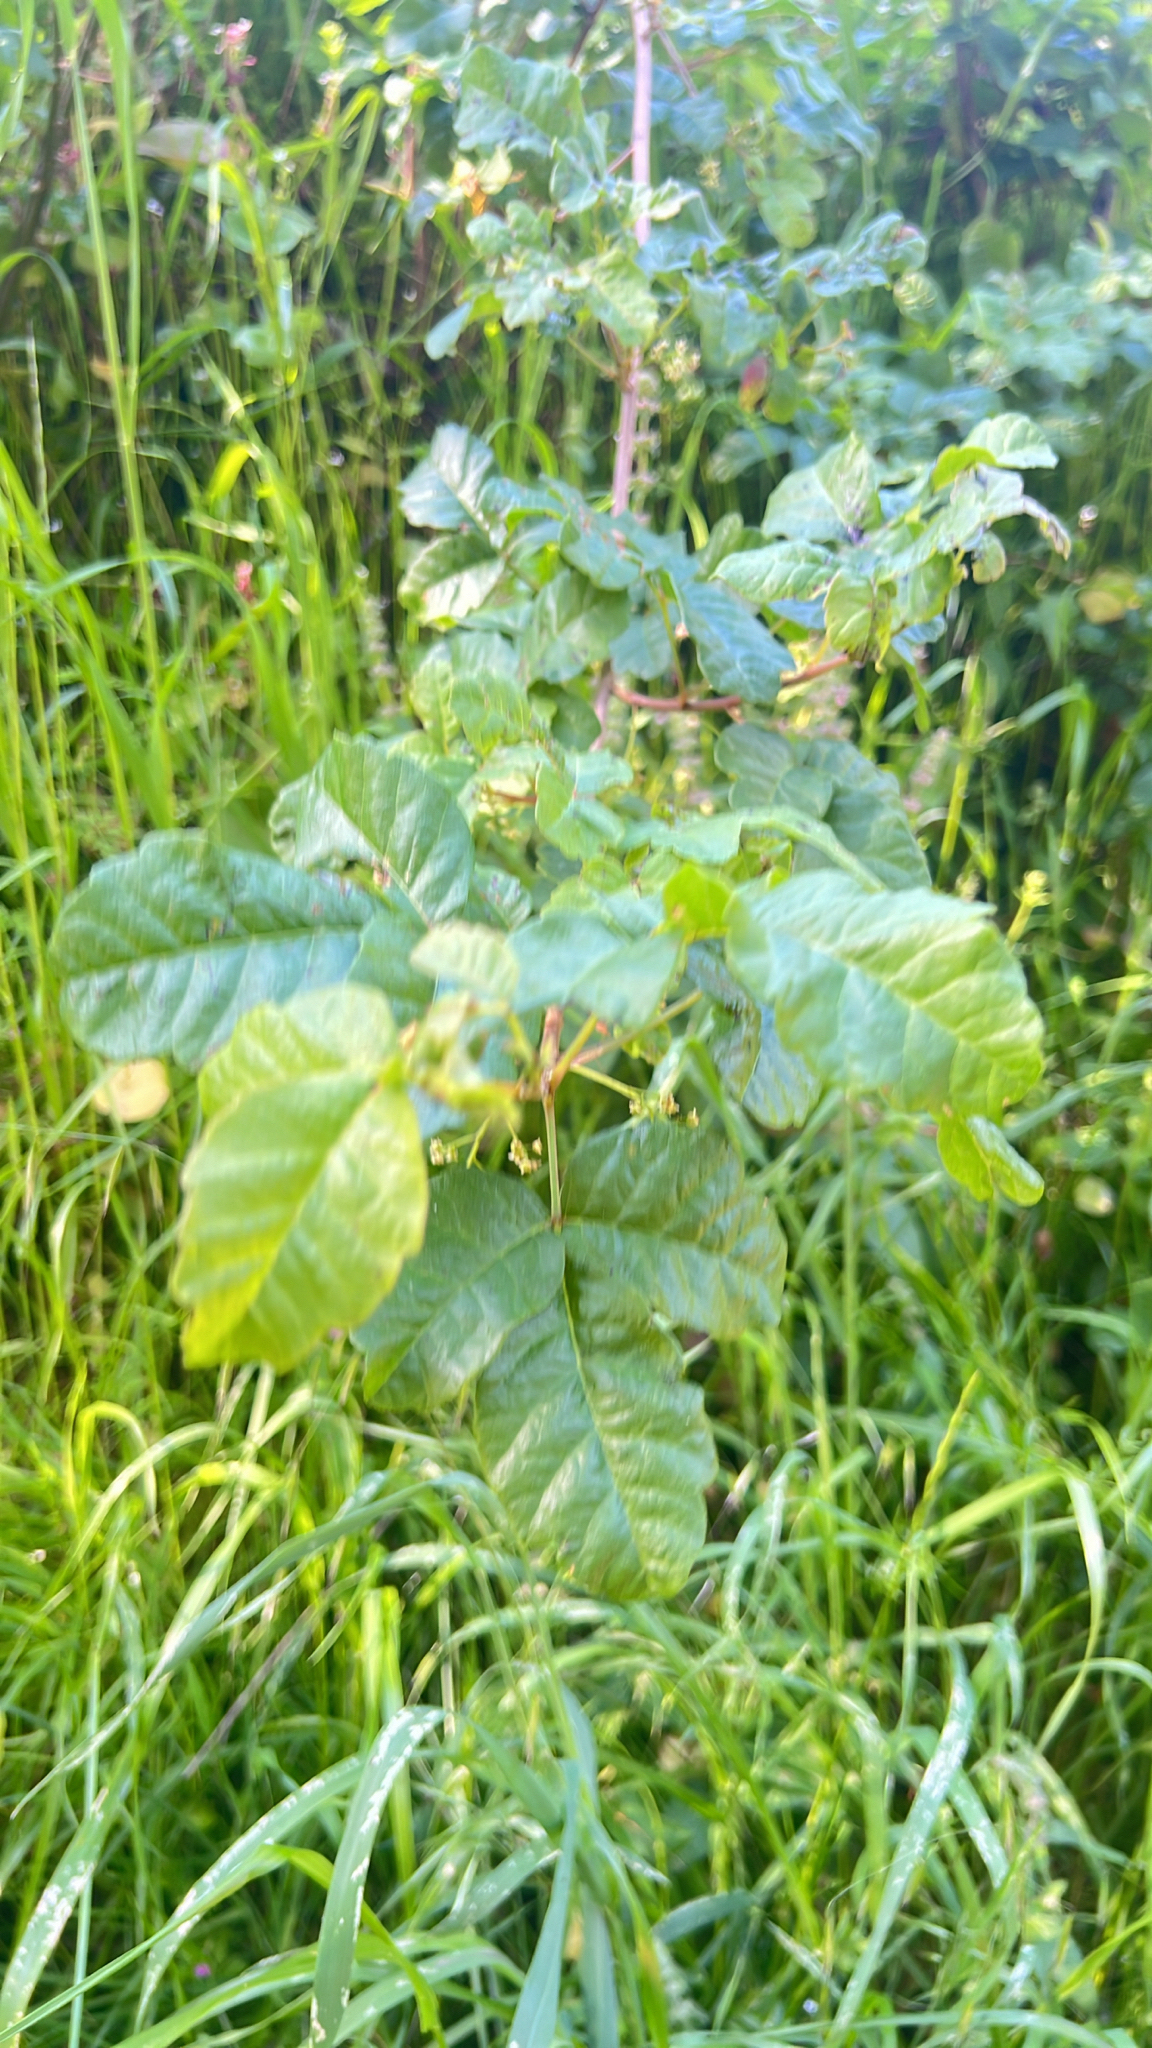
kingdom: Plantae
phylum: Tracheophyta
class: Magnoliopsida
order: Sapindales
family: Anacardiaceae
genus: Toxicodendron
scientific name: Toxicodendron diversilobum
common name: Pacific poison-oak
